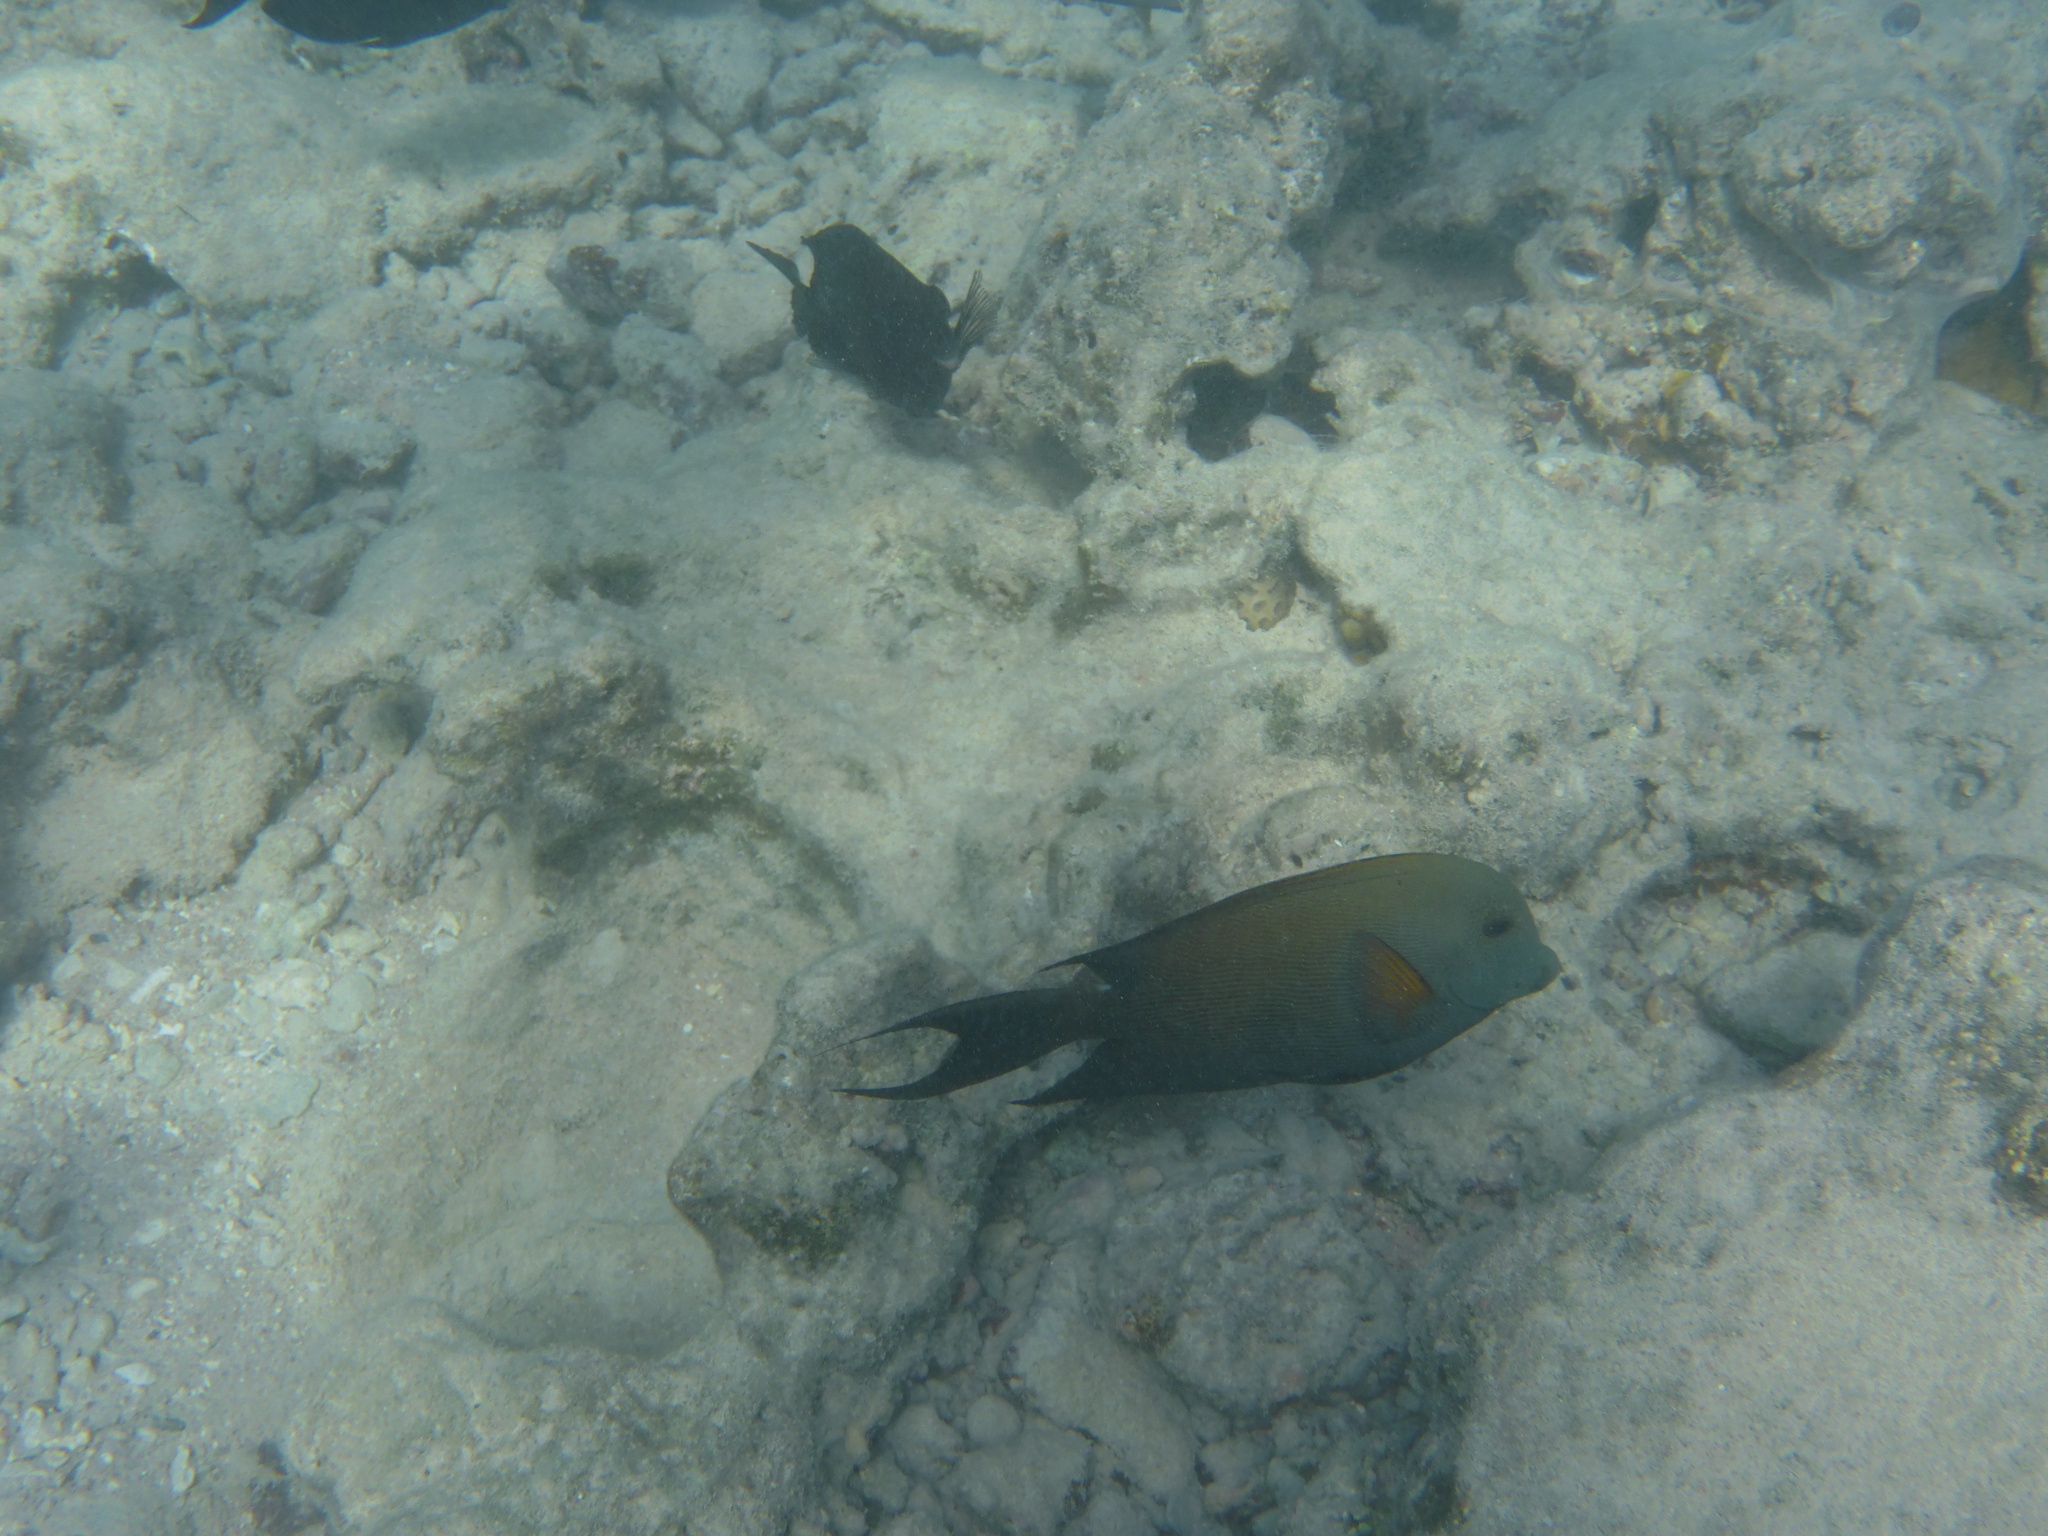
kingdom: Animalia
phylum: Chordata
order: Perciformes
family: Acanthuridae
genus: Ctenochaetus
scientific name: Ctenochaetus striatus
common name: Bristle-toothed surgeonfish
